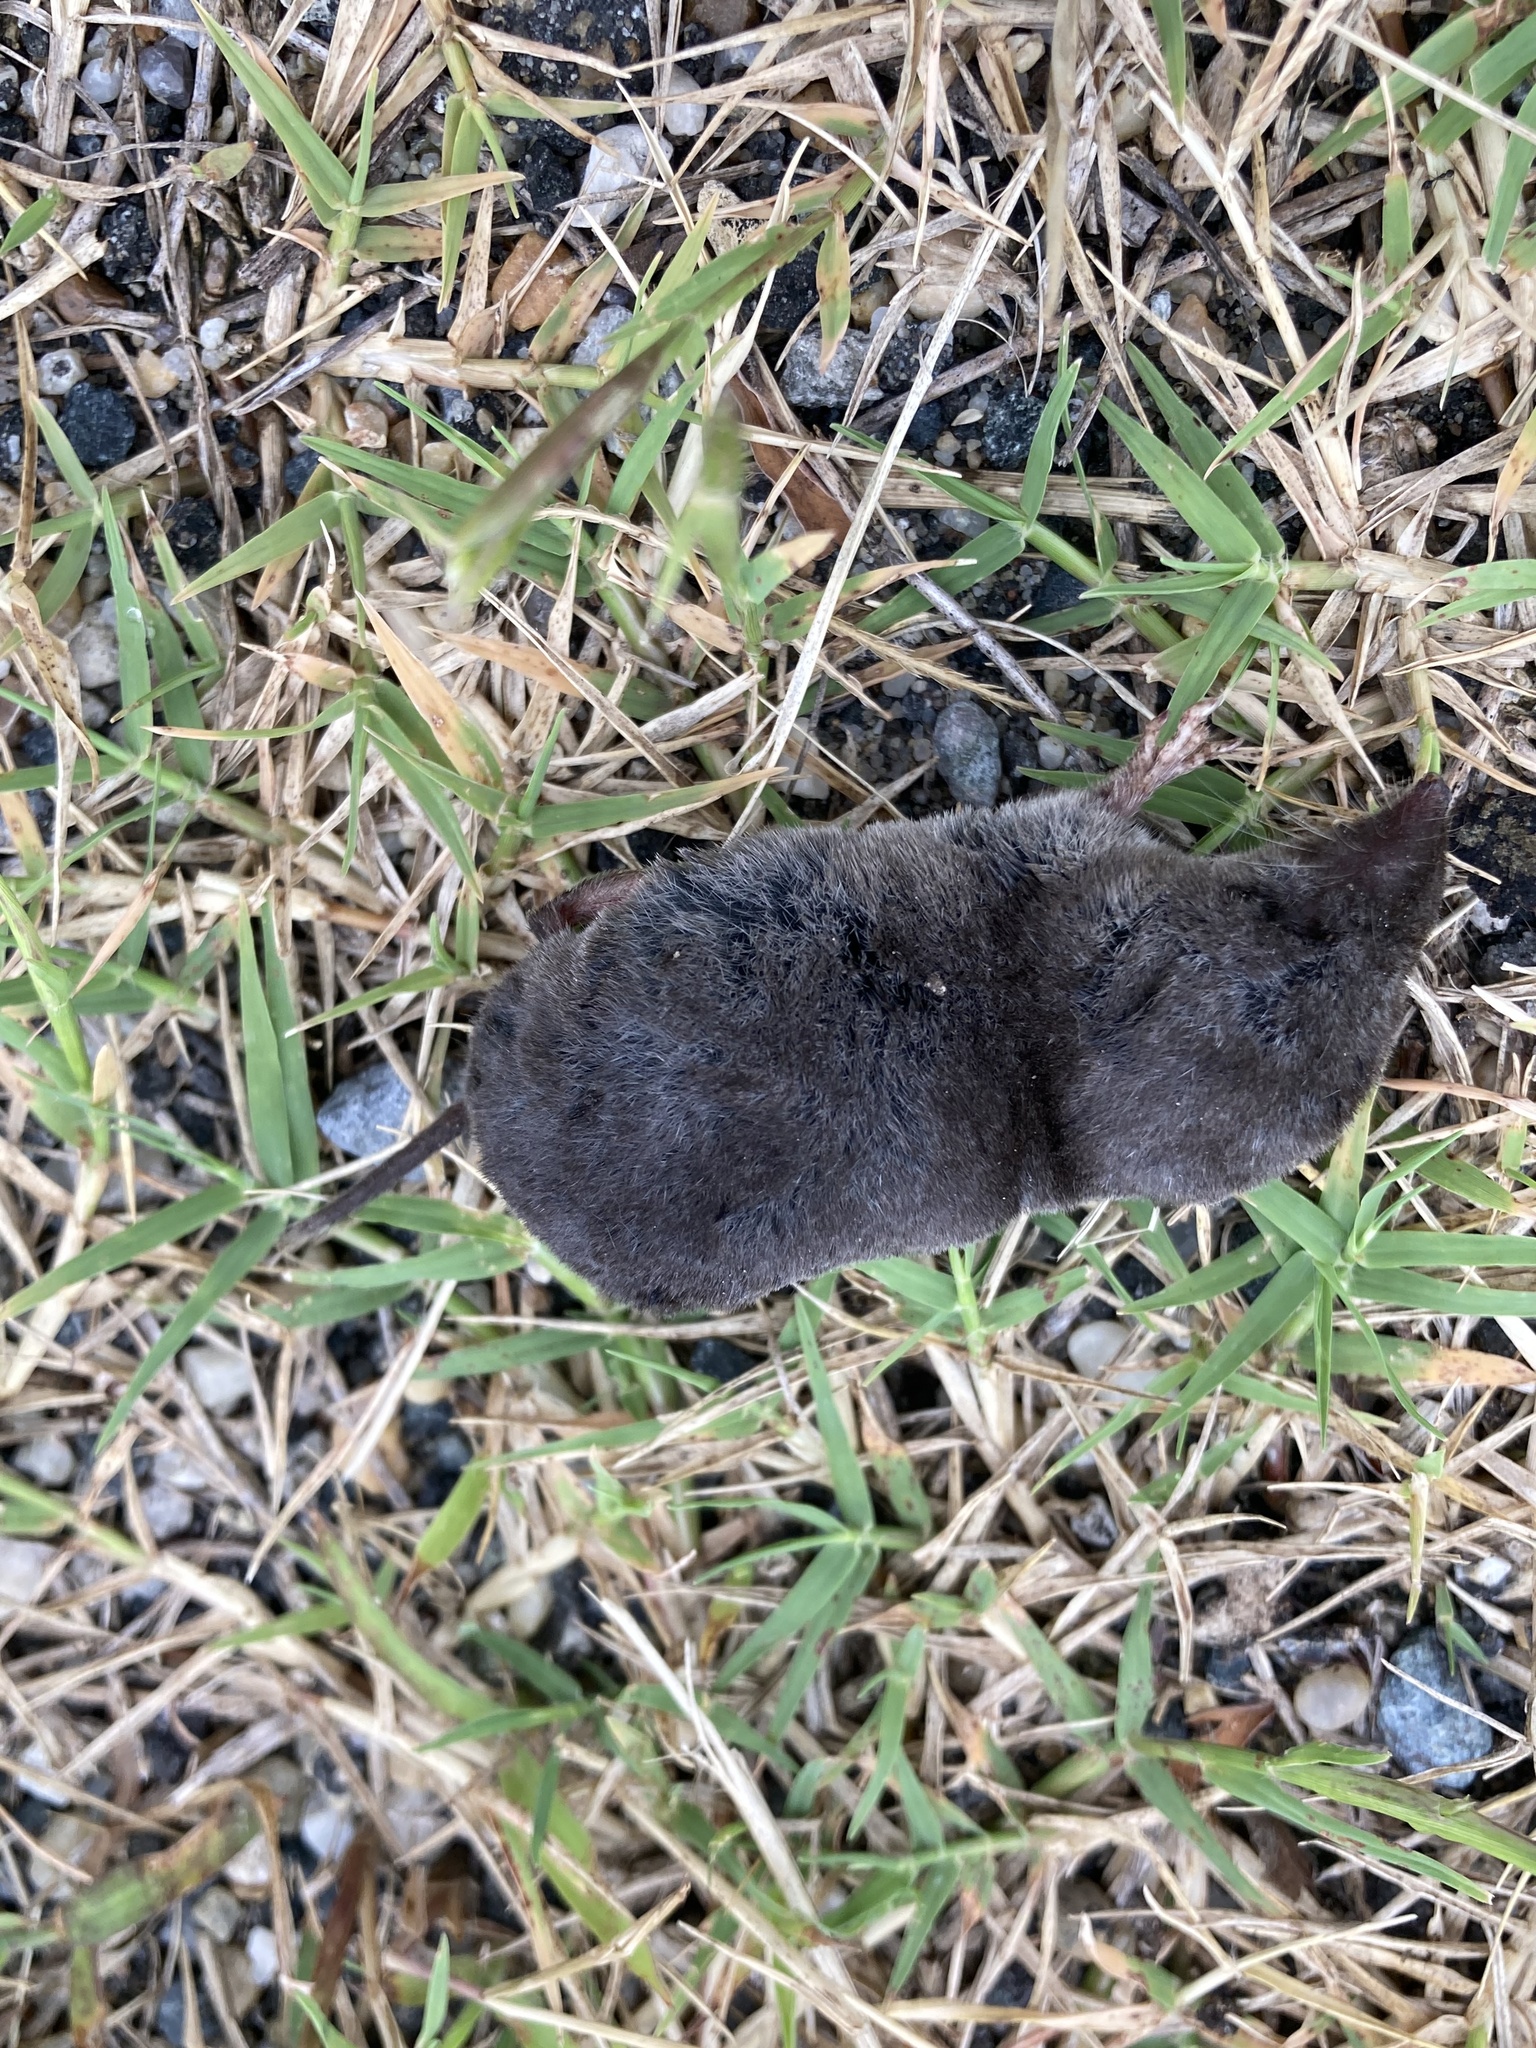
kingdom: Animalia
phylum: Chordata
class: Mammalia
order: Soricomorpha
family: Soricidae
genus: Blarina
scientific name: Blarina brevicauda
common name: Northern short-tailed shrew
